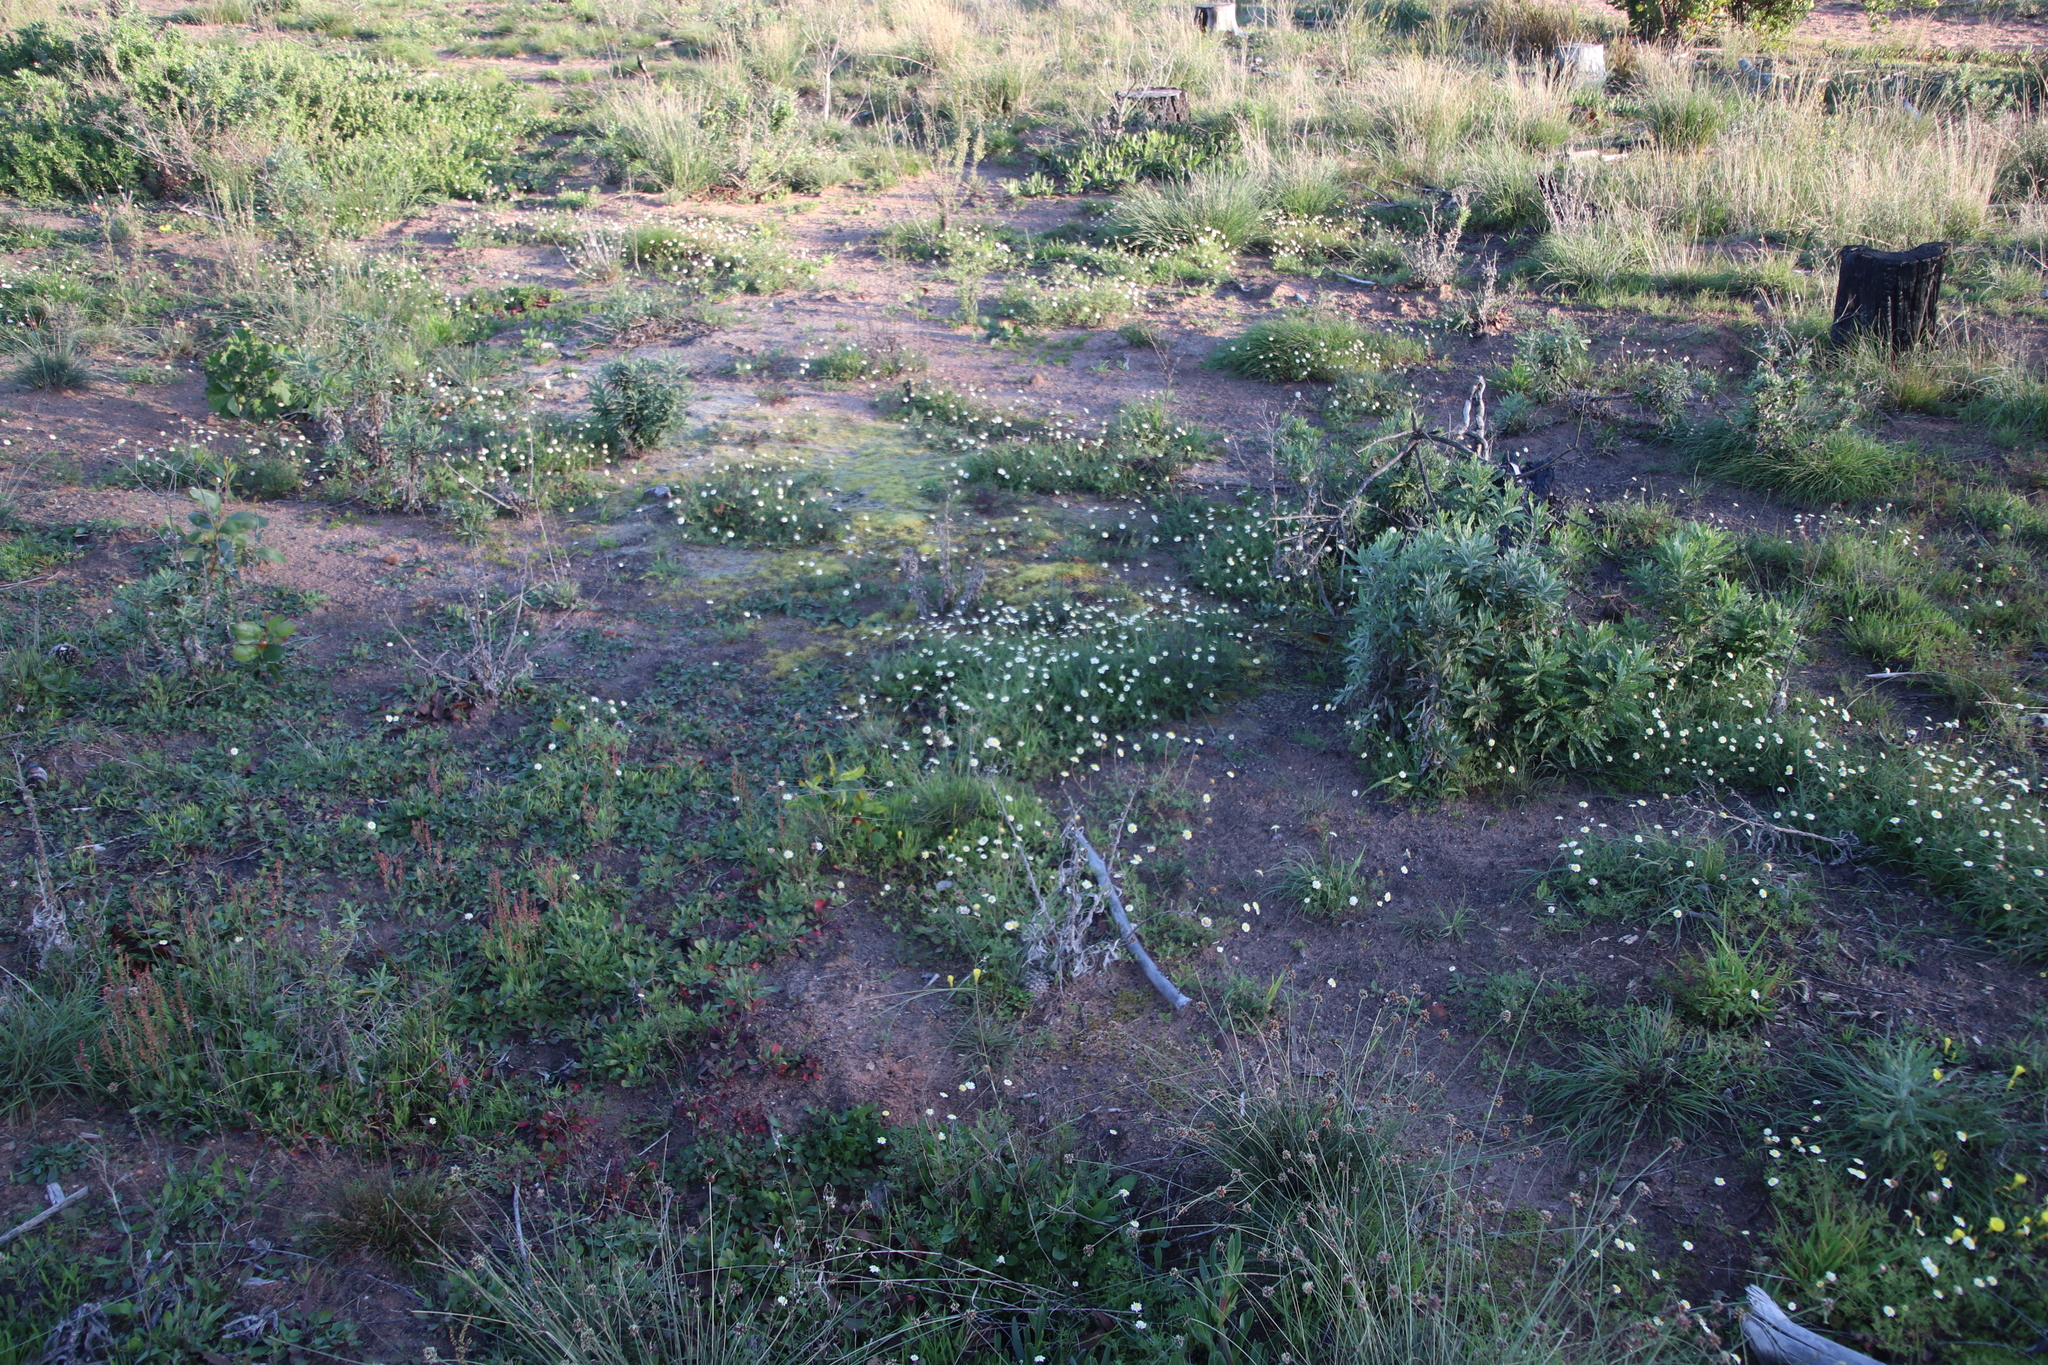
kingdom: Plantae
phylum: Tracheophyta
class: Magnoliopsida
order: Asterales
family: Asteraceae
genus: Cotula
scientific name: Cotula turbinata
